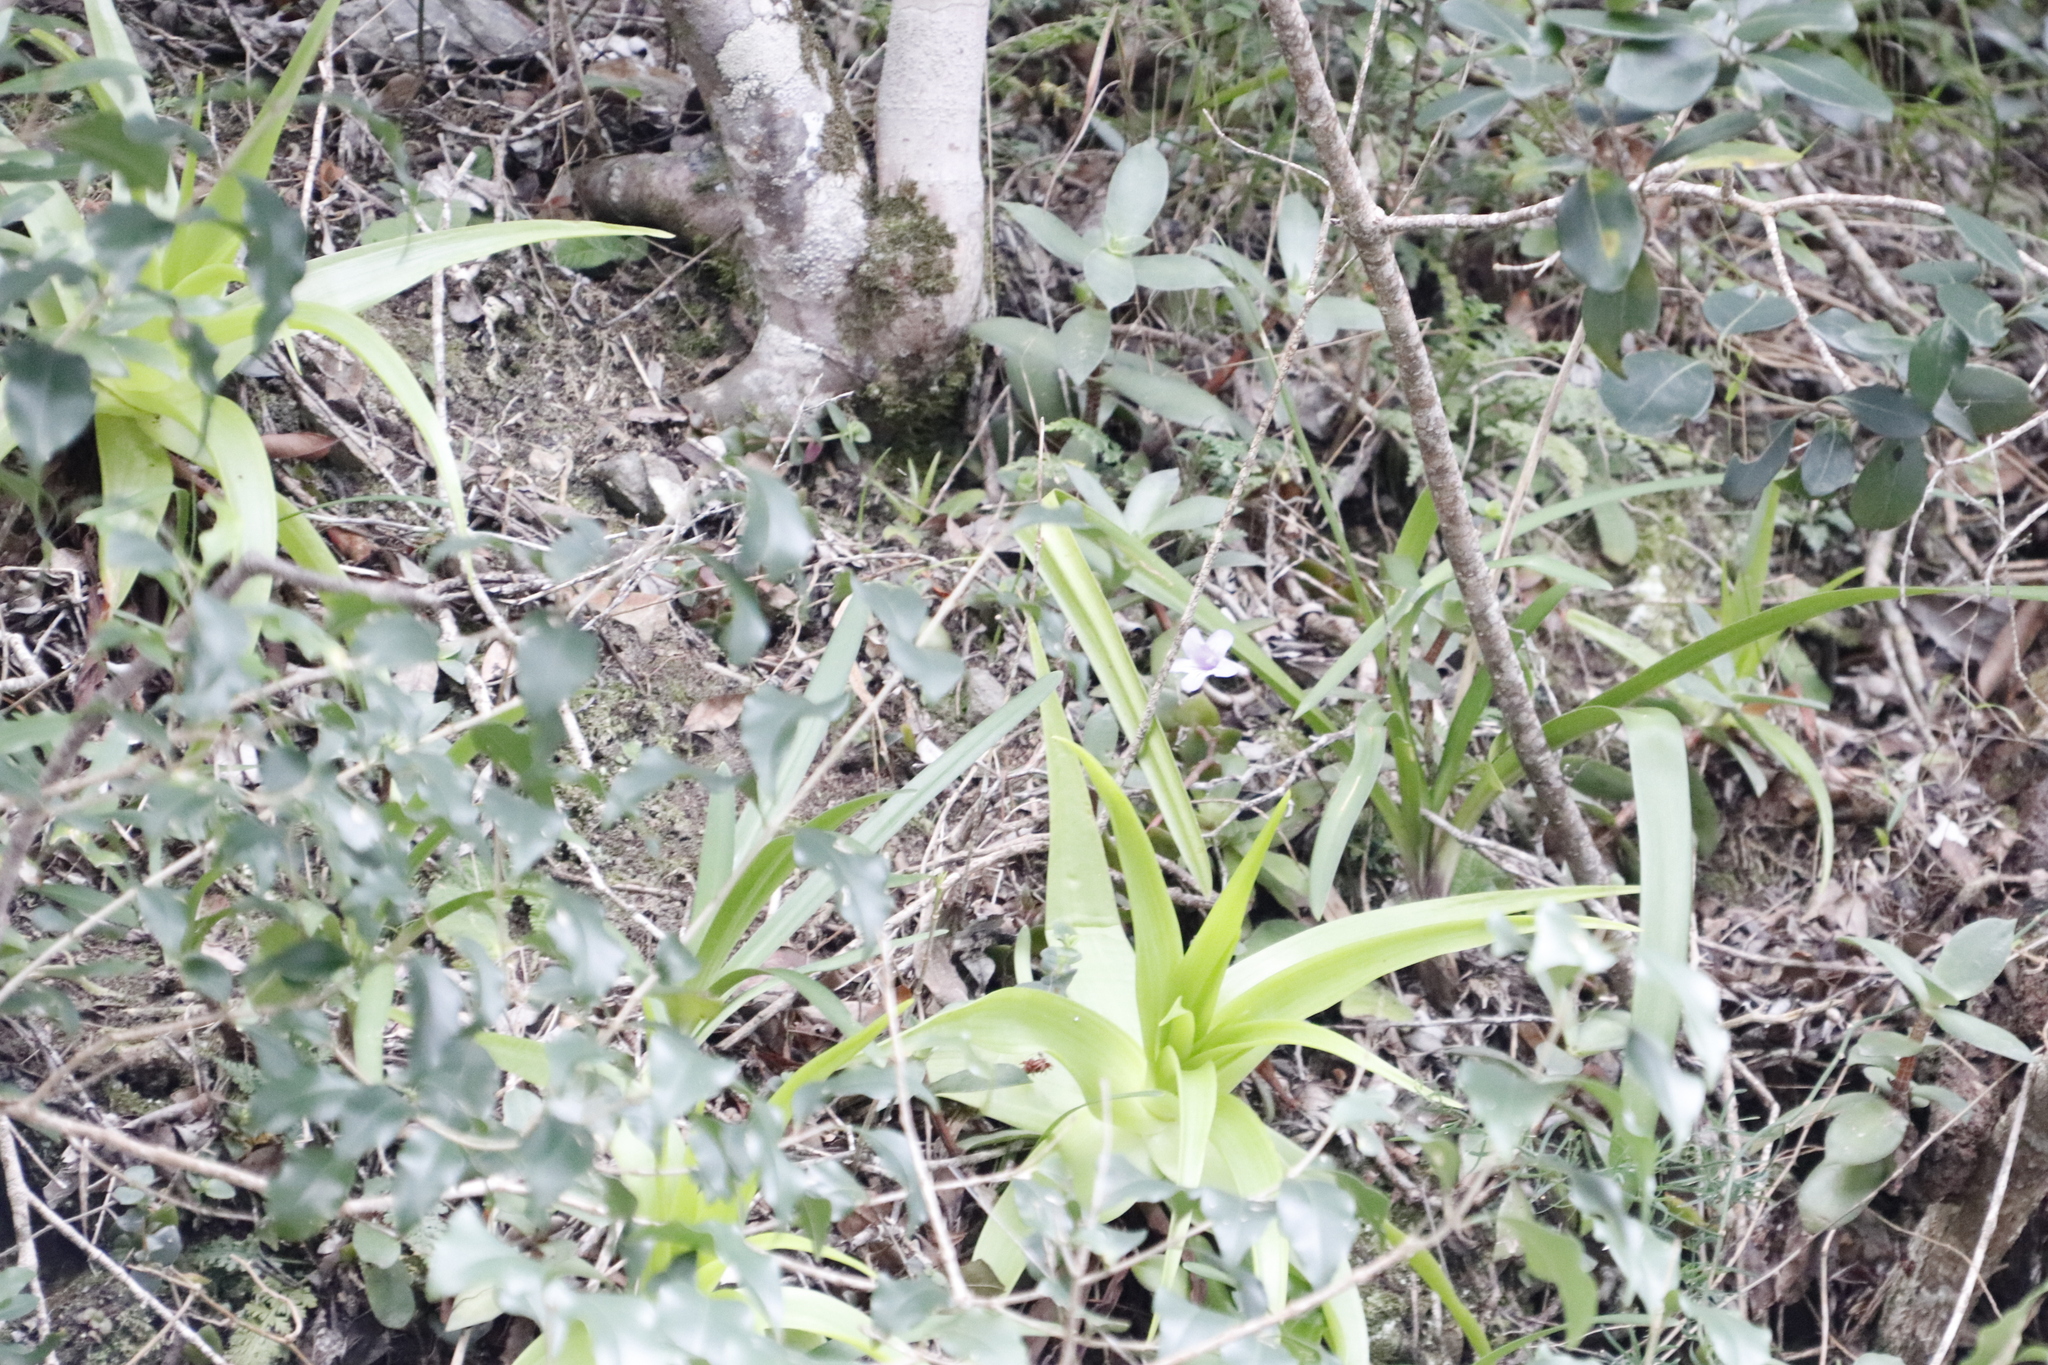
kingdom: Plantae
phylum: Tracheophyta
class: Magnoliopsida
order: Lamiales
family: Gesneriaceae
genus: Streptocarpus
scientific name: Streptocarpus rexii
